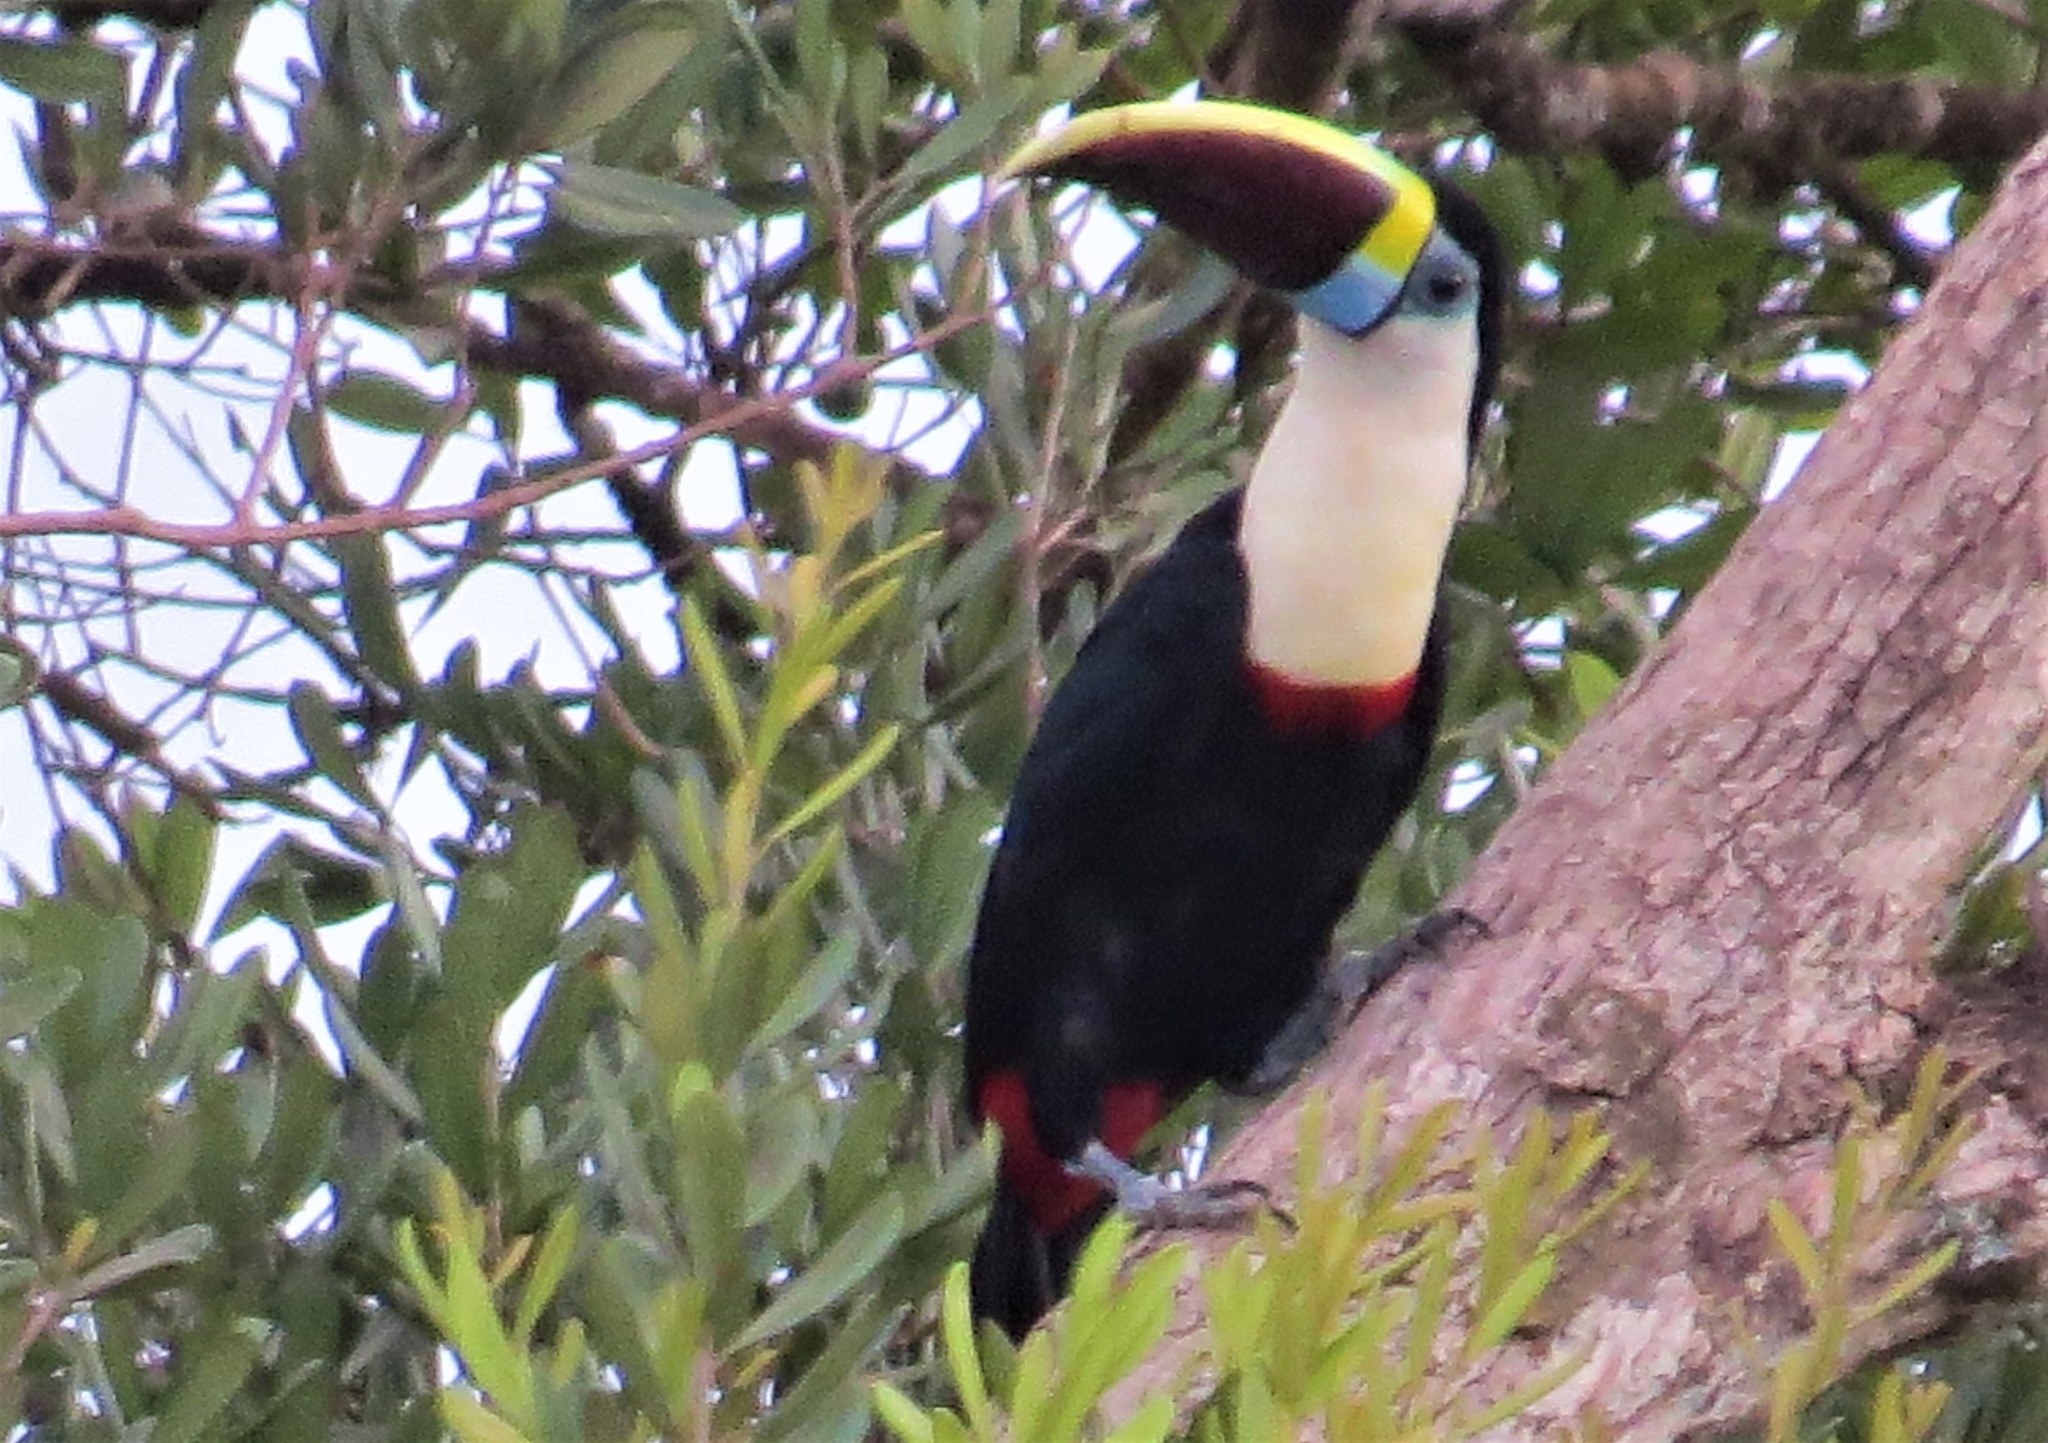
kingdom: Animalia
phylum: Chordata
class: Aves
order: Piciformes
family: Ramphastidae
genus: Ramphastos
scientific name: Ramphastos tucanus
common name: White-throated toucan
